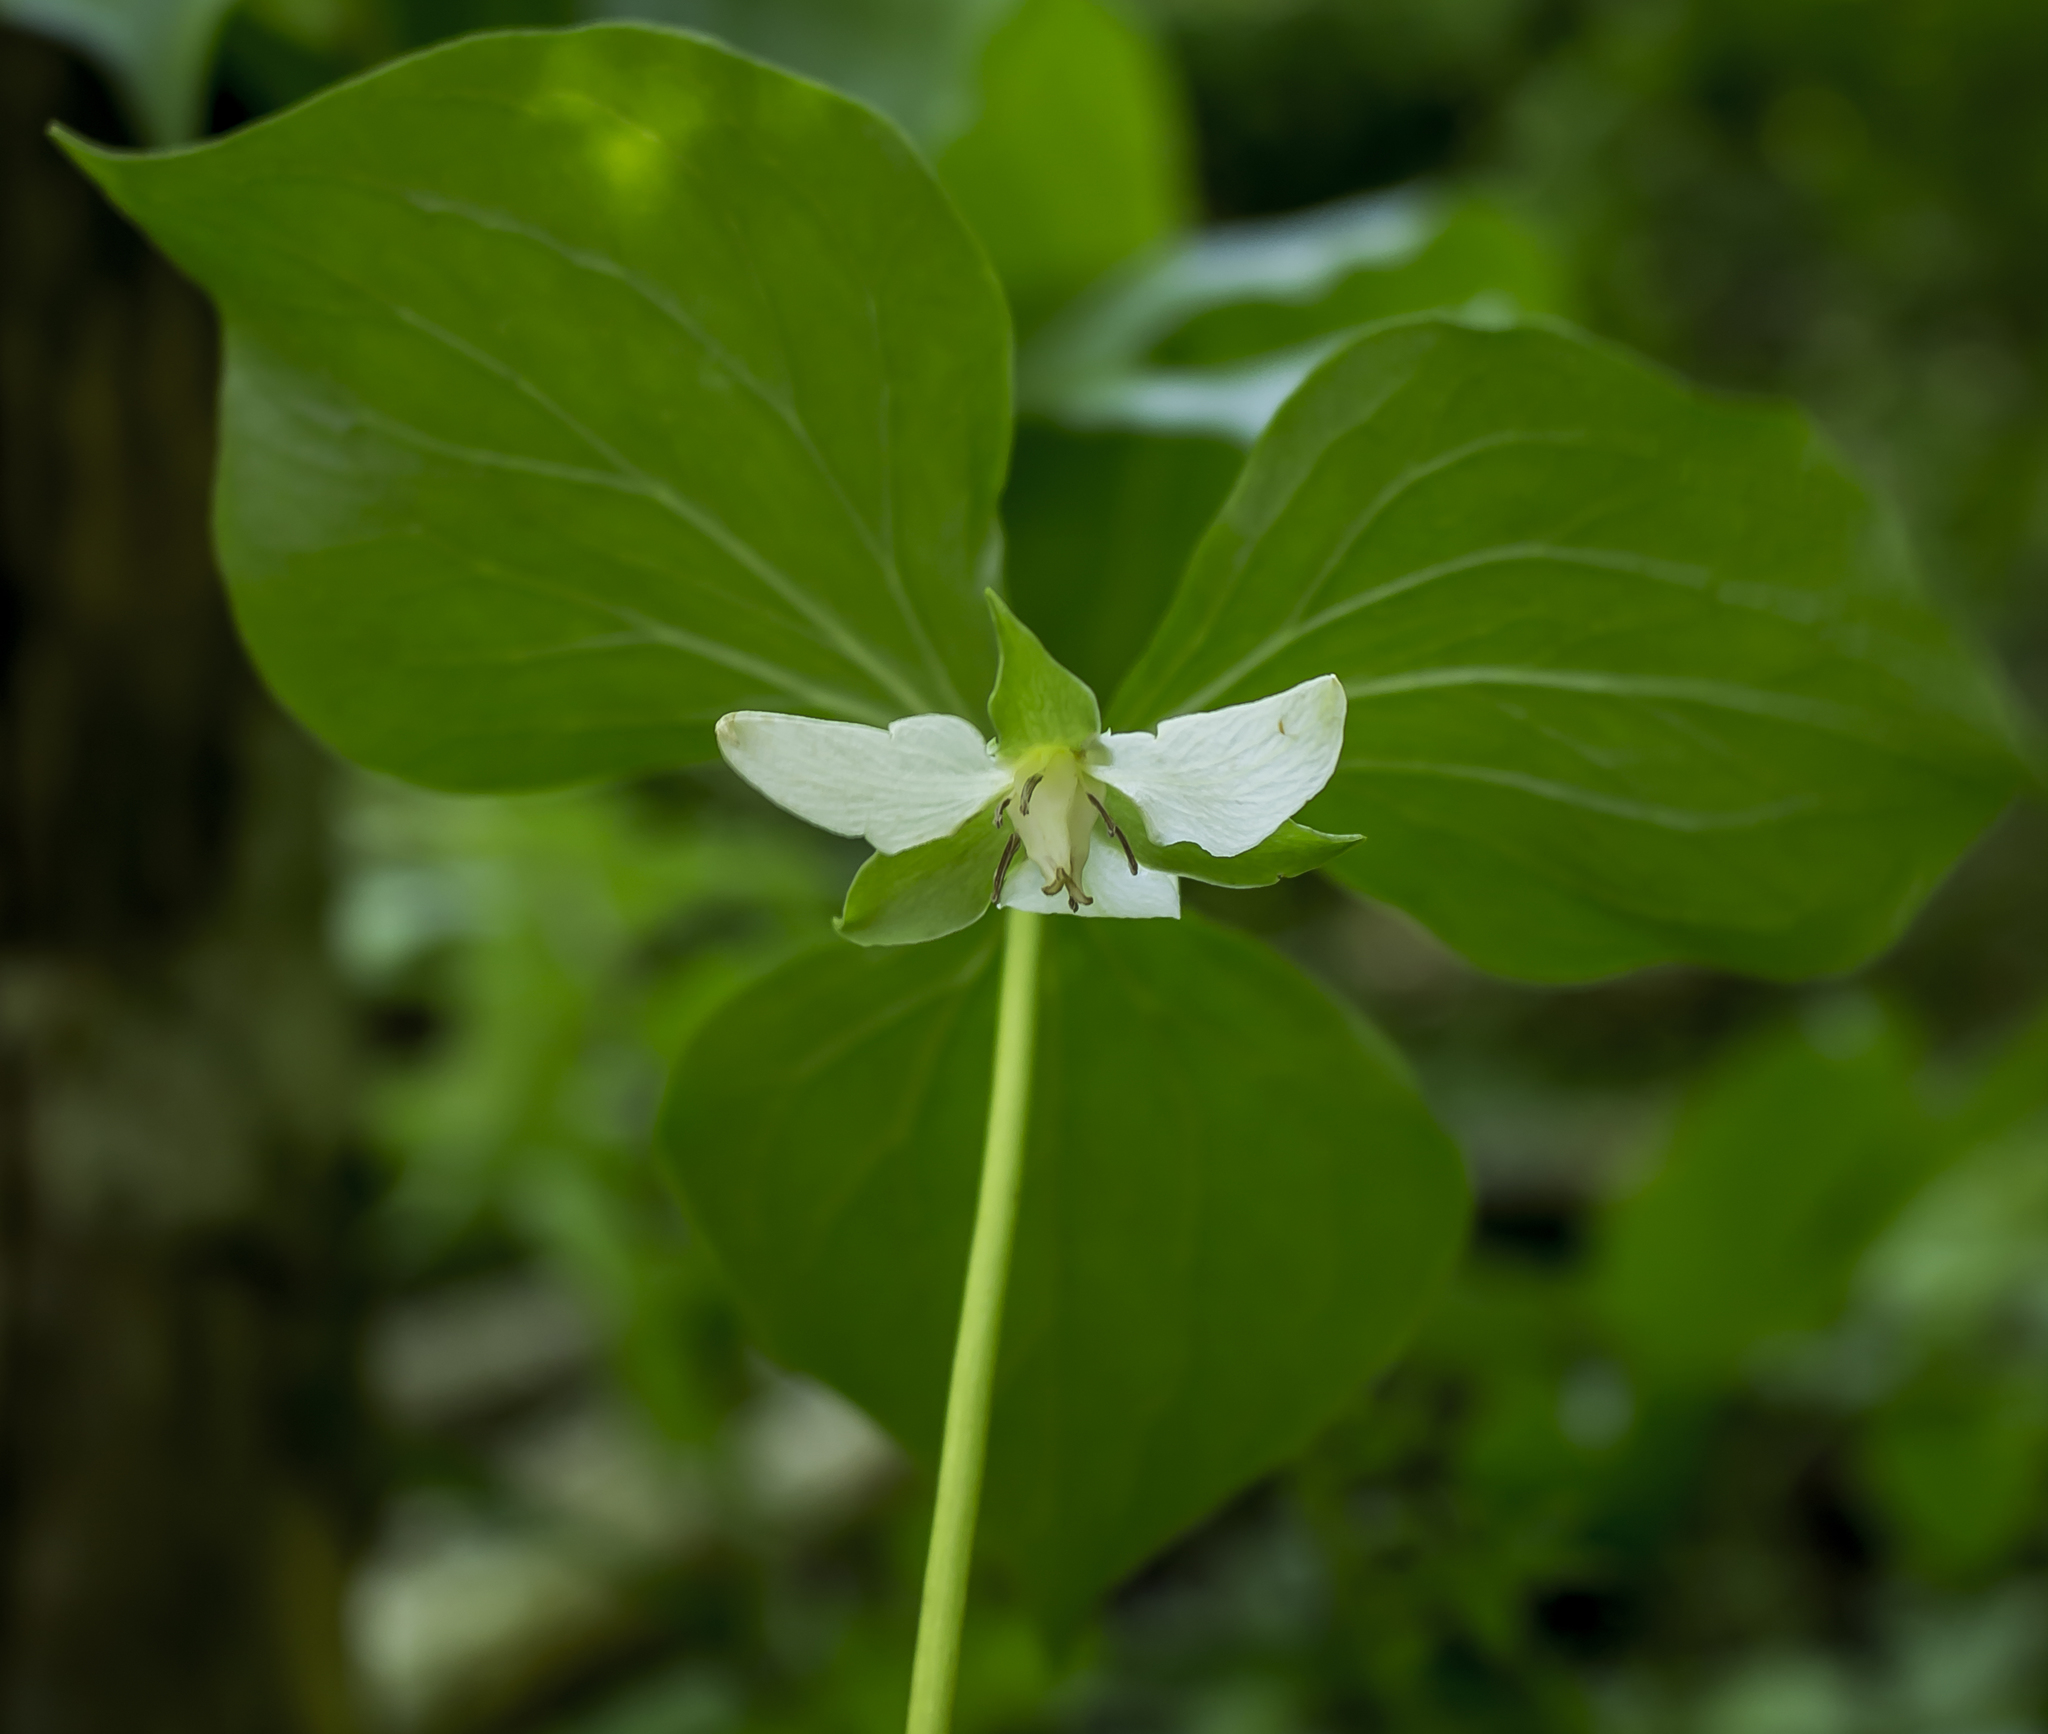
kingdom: Plantae
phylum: Tracheophyta
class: Liliopsida
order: Liliales
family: Melanthiaceae
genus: Trillium
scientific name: Trillium cernuum
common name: Nodding trillium
